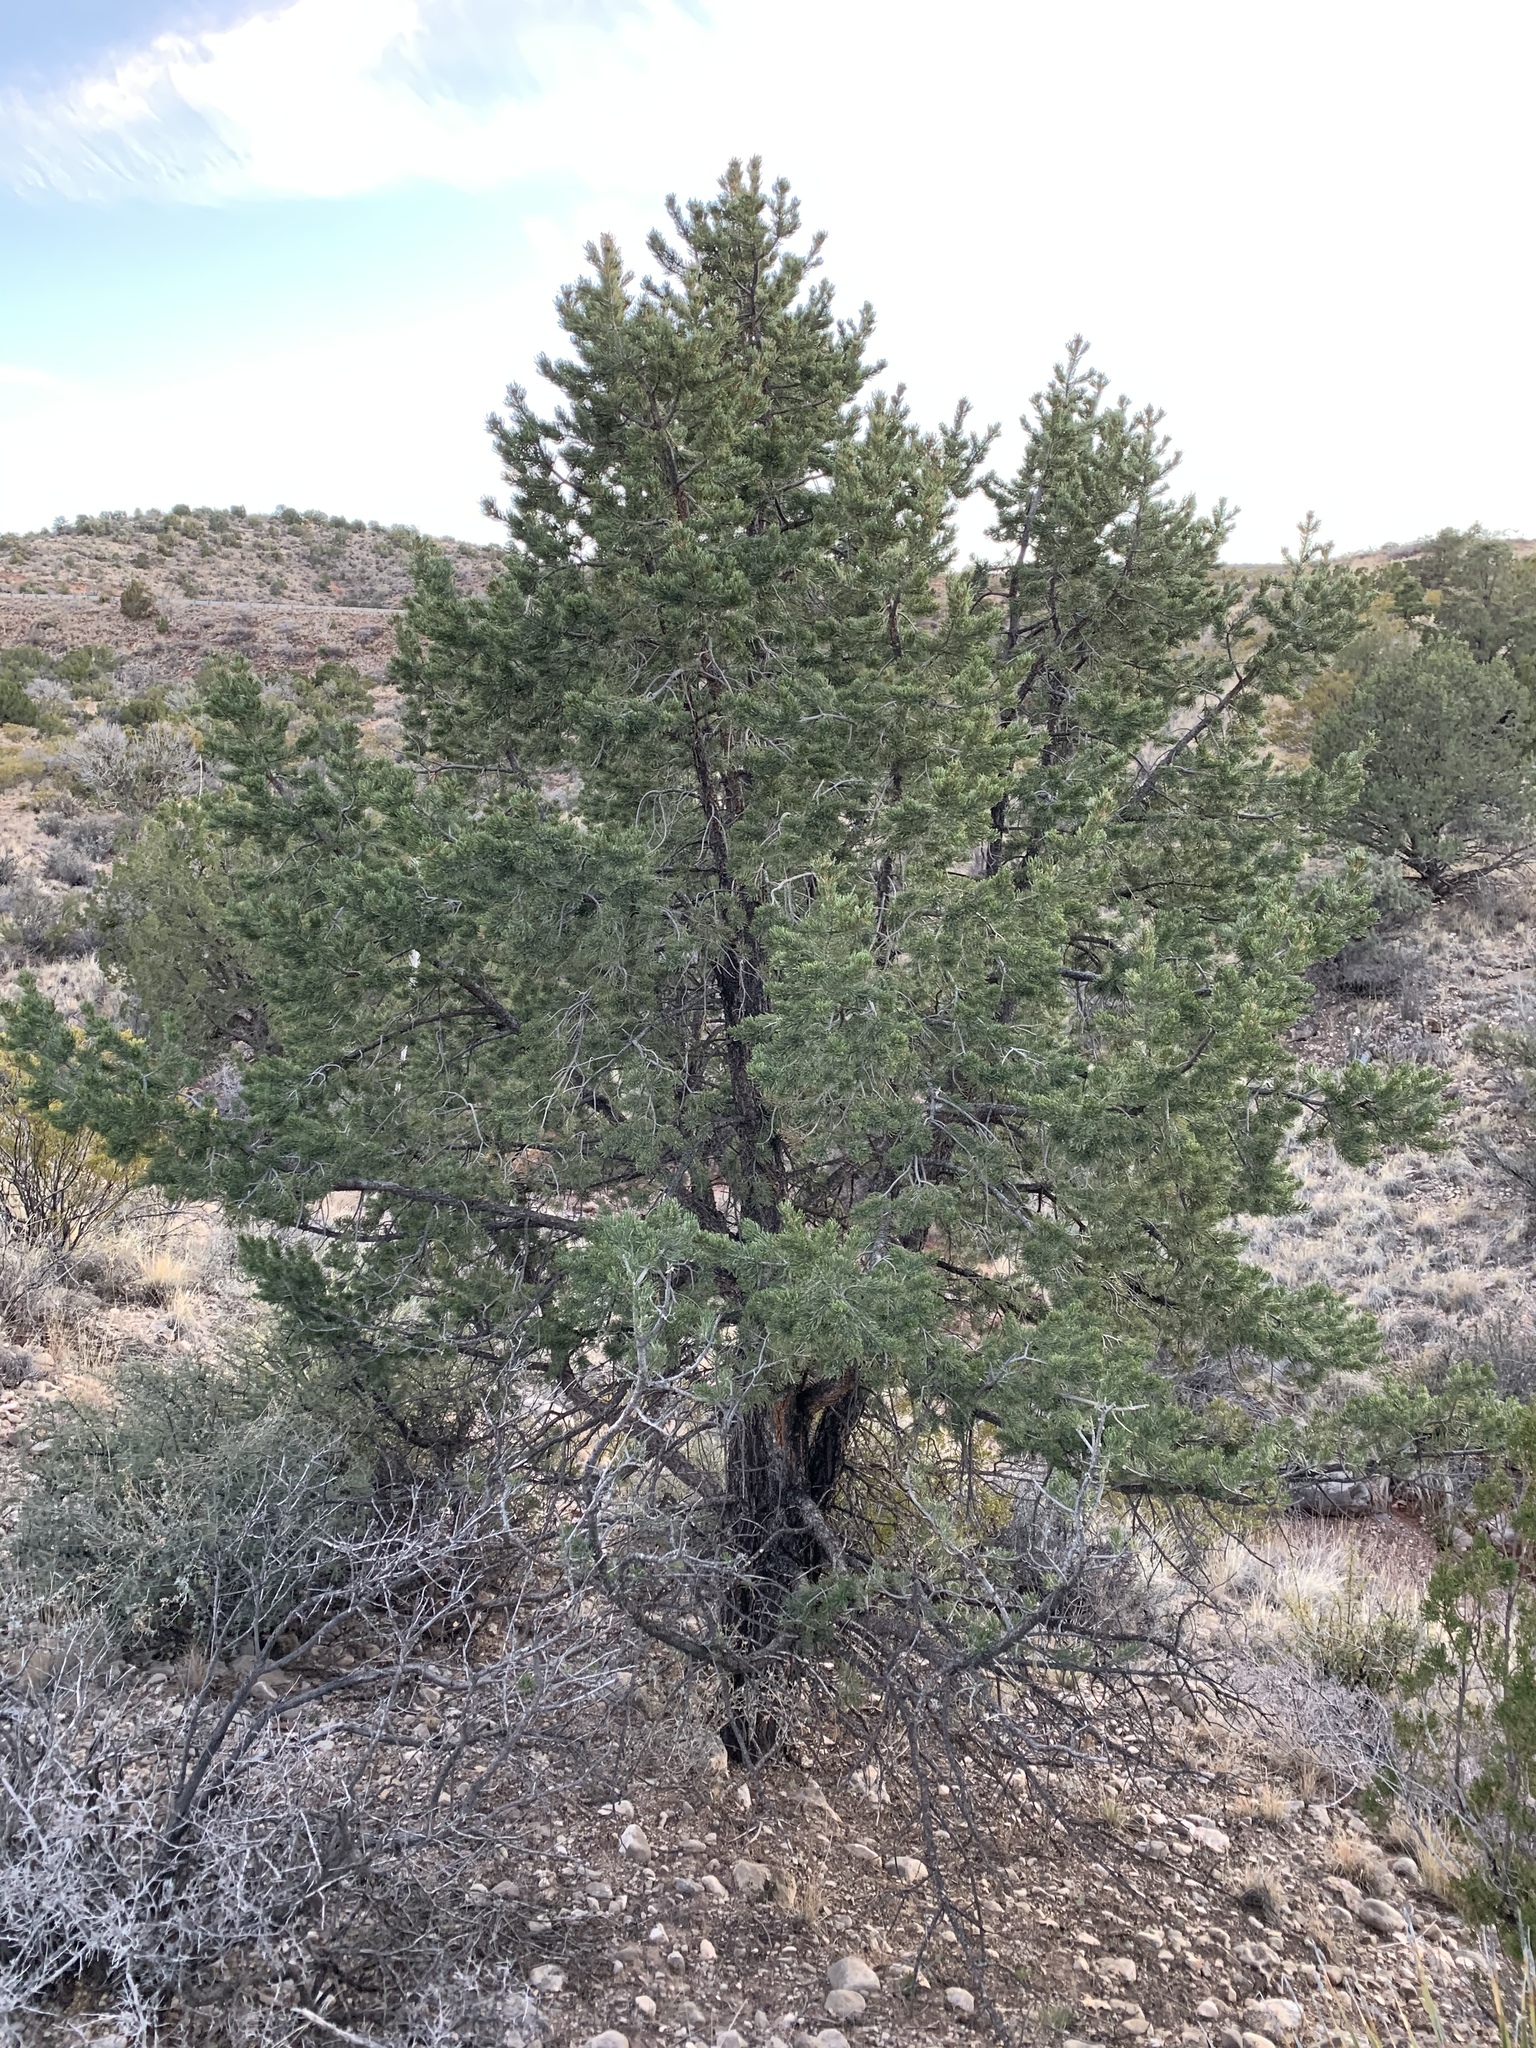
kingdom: Plantae
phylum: Tracheophyta
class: Pinopsida
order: Pinales
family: Pinaceae
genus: Pinus
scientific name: Pinus edulis
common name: Colorado pinyon
